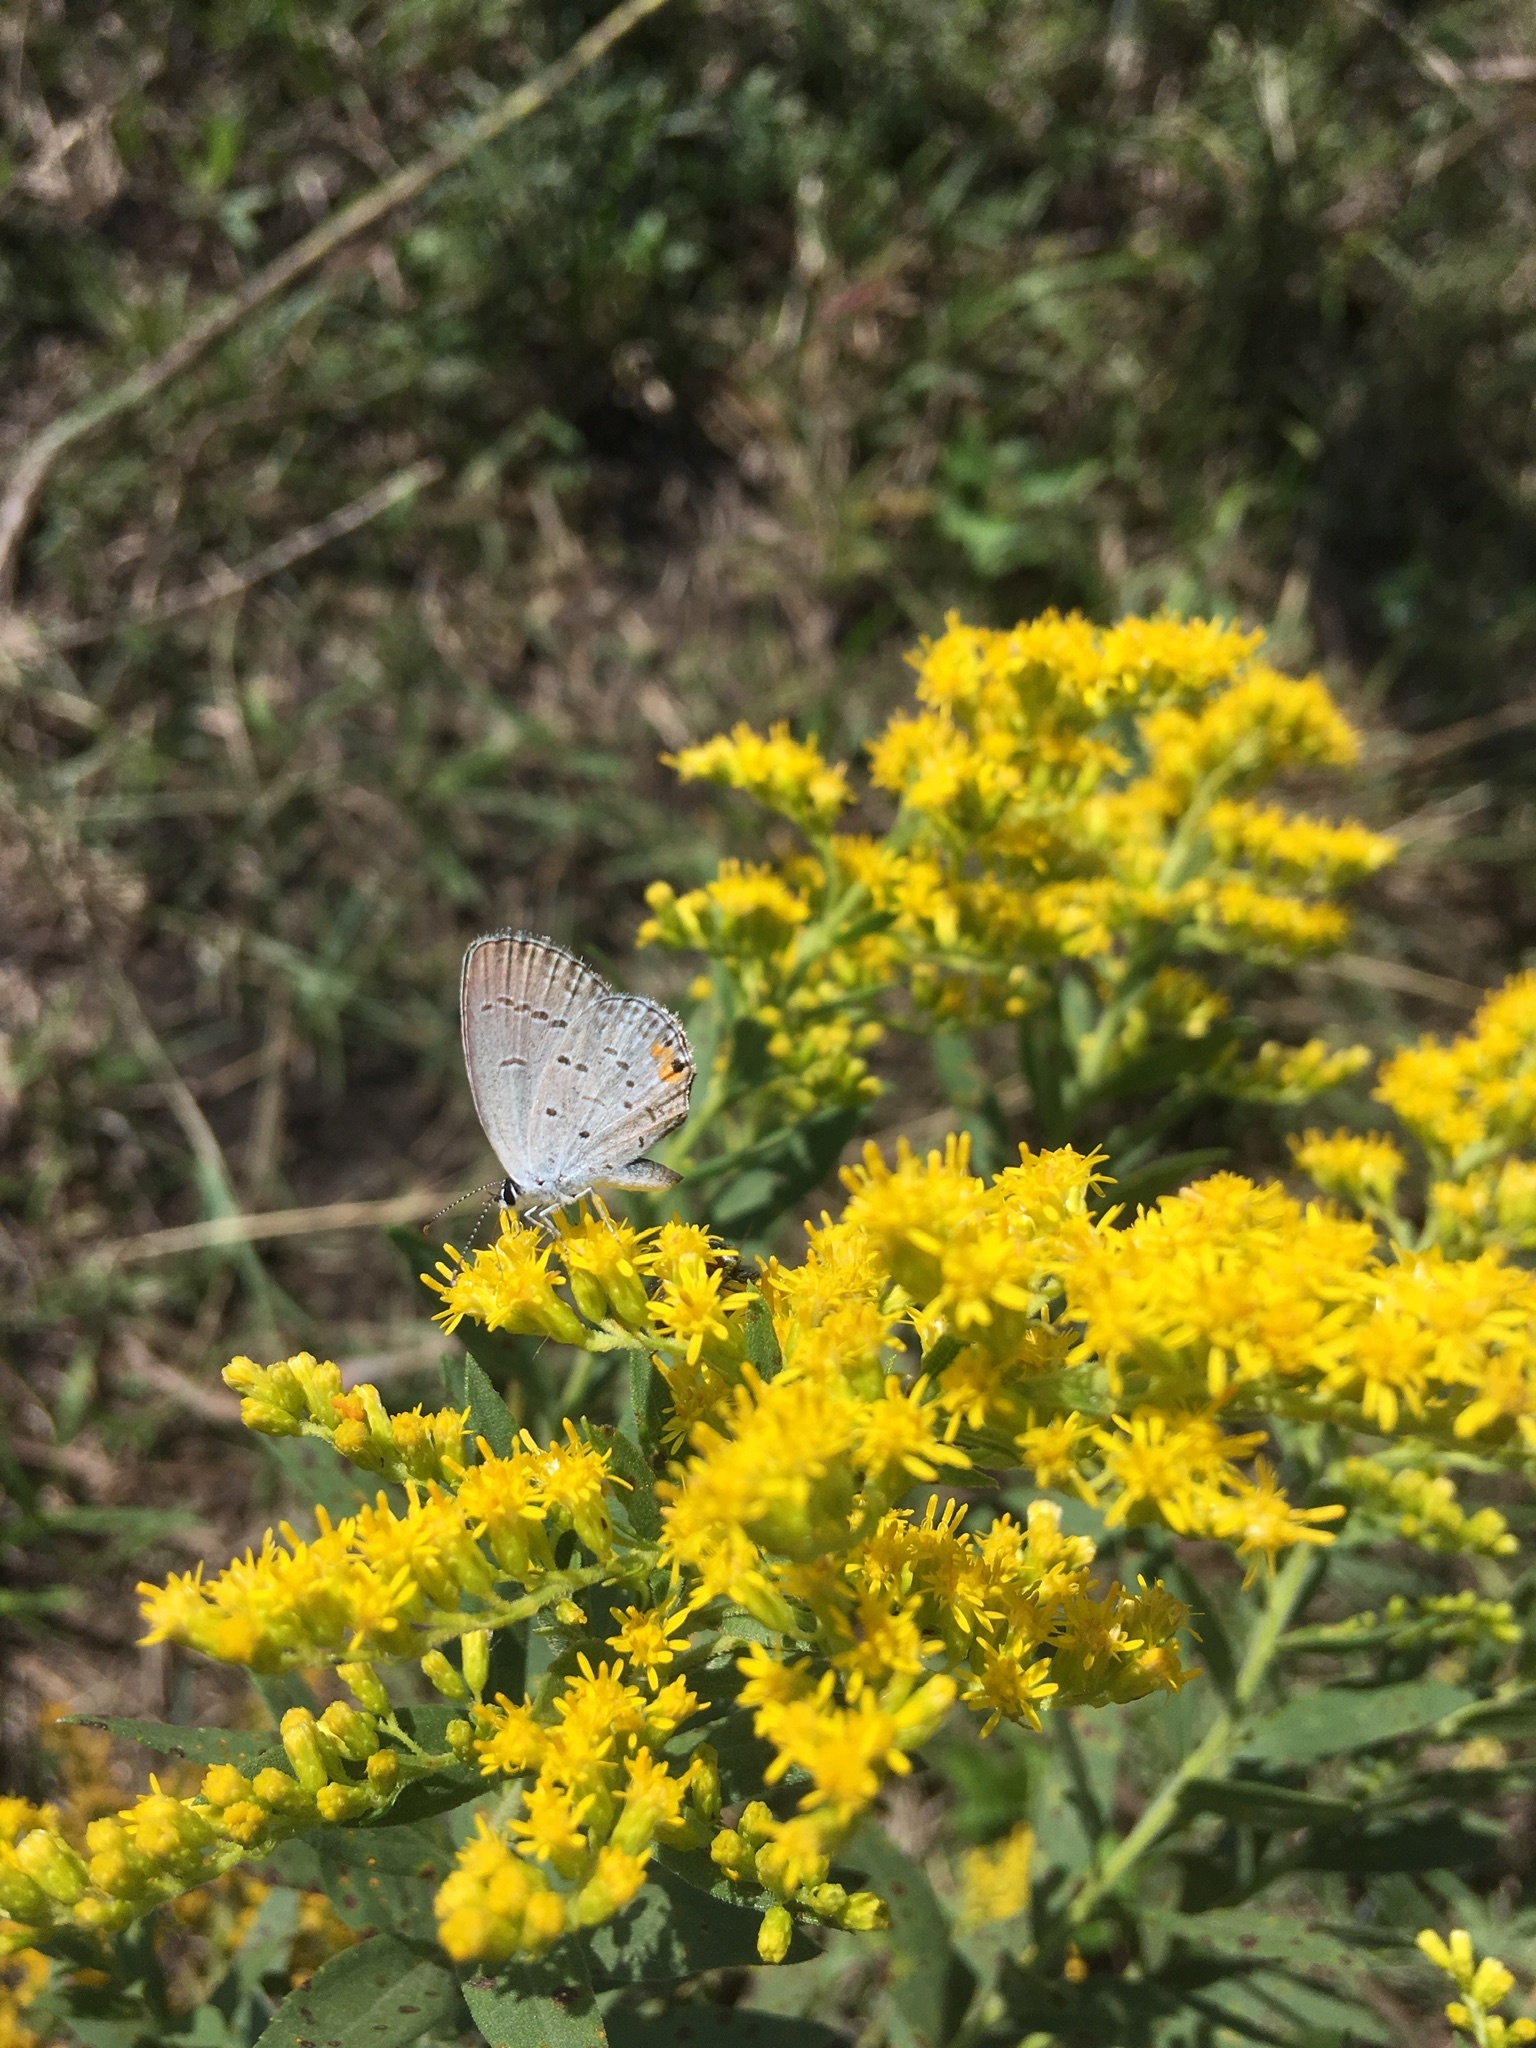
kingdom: Animalia
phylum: Arthropoda
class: Insecta
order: Lepidoptera
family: Lycaenidae
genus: Elkalyce
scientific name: Elkalyce comyntas
